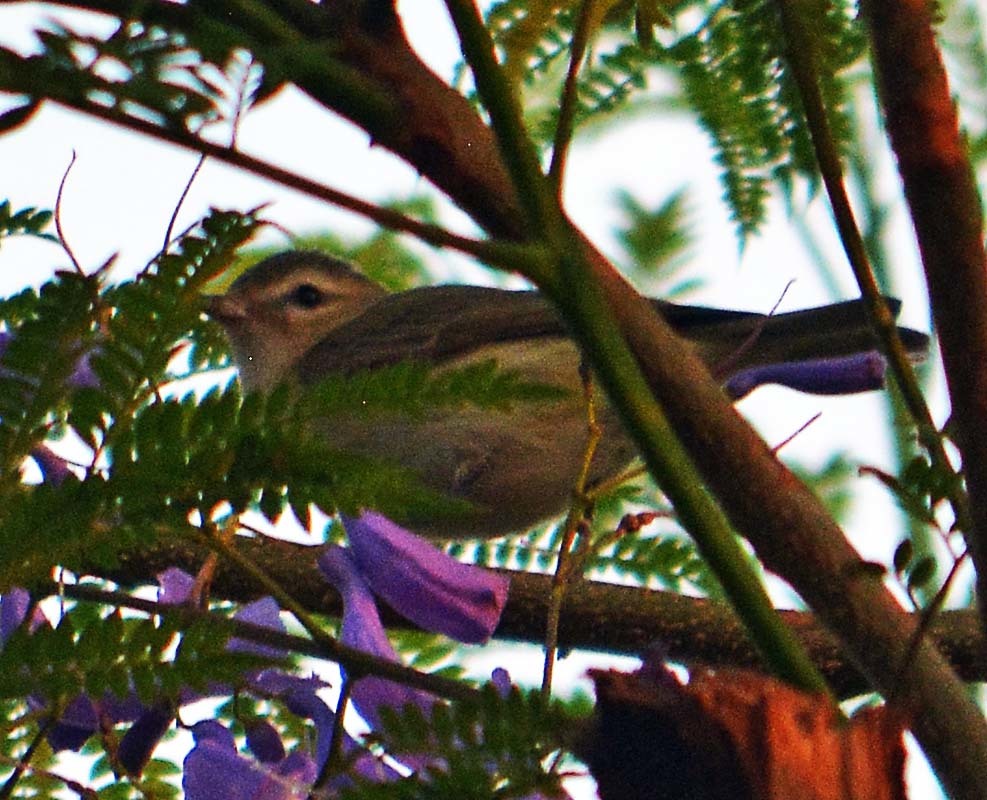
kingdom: Animalia
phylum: Chordata
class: Aves
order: Passeriformes
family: Vireonidae
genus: Vireo
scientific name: Vireo gilvus
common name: Warbling vireo
